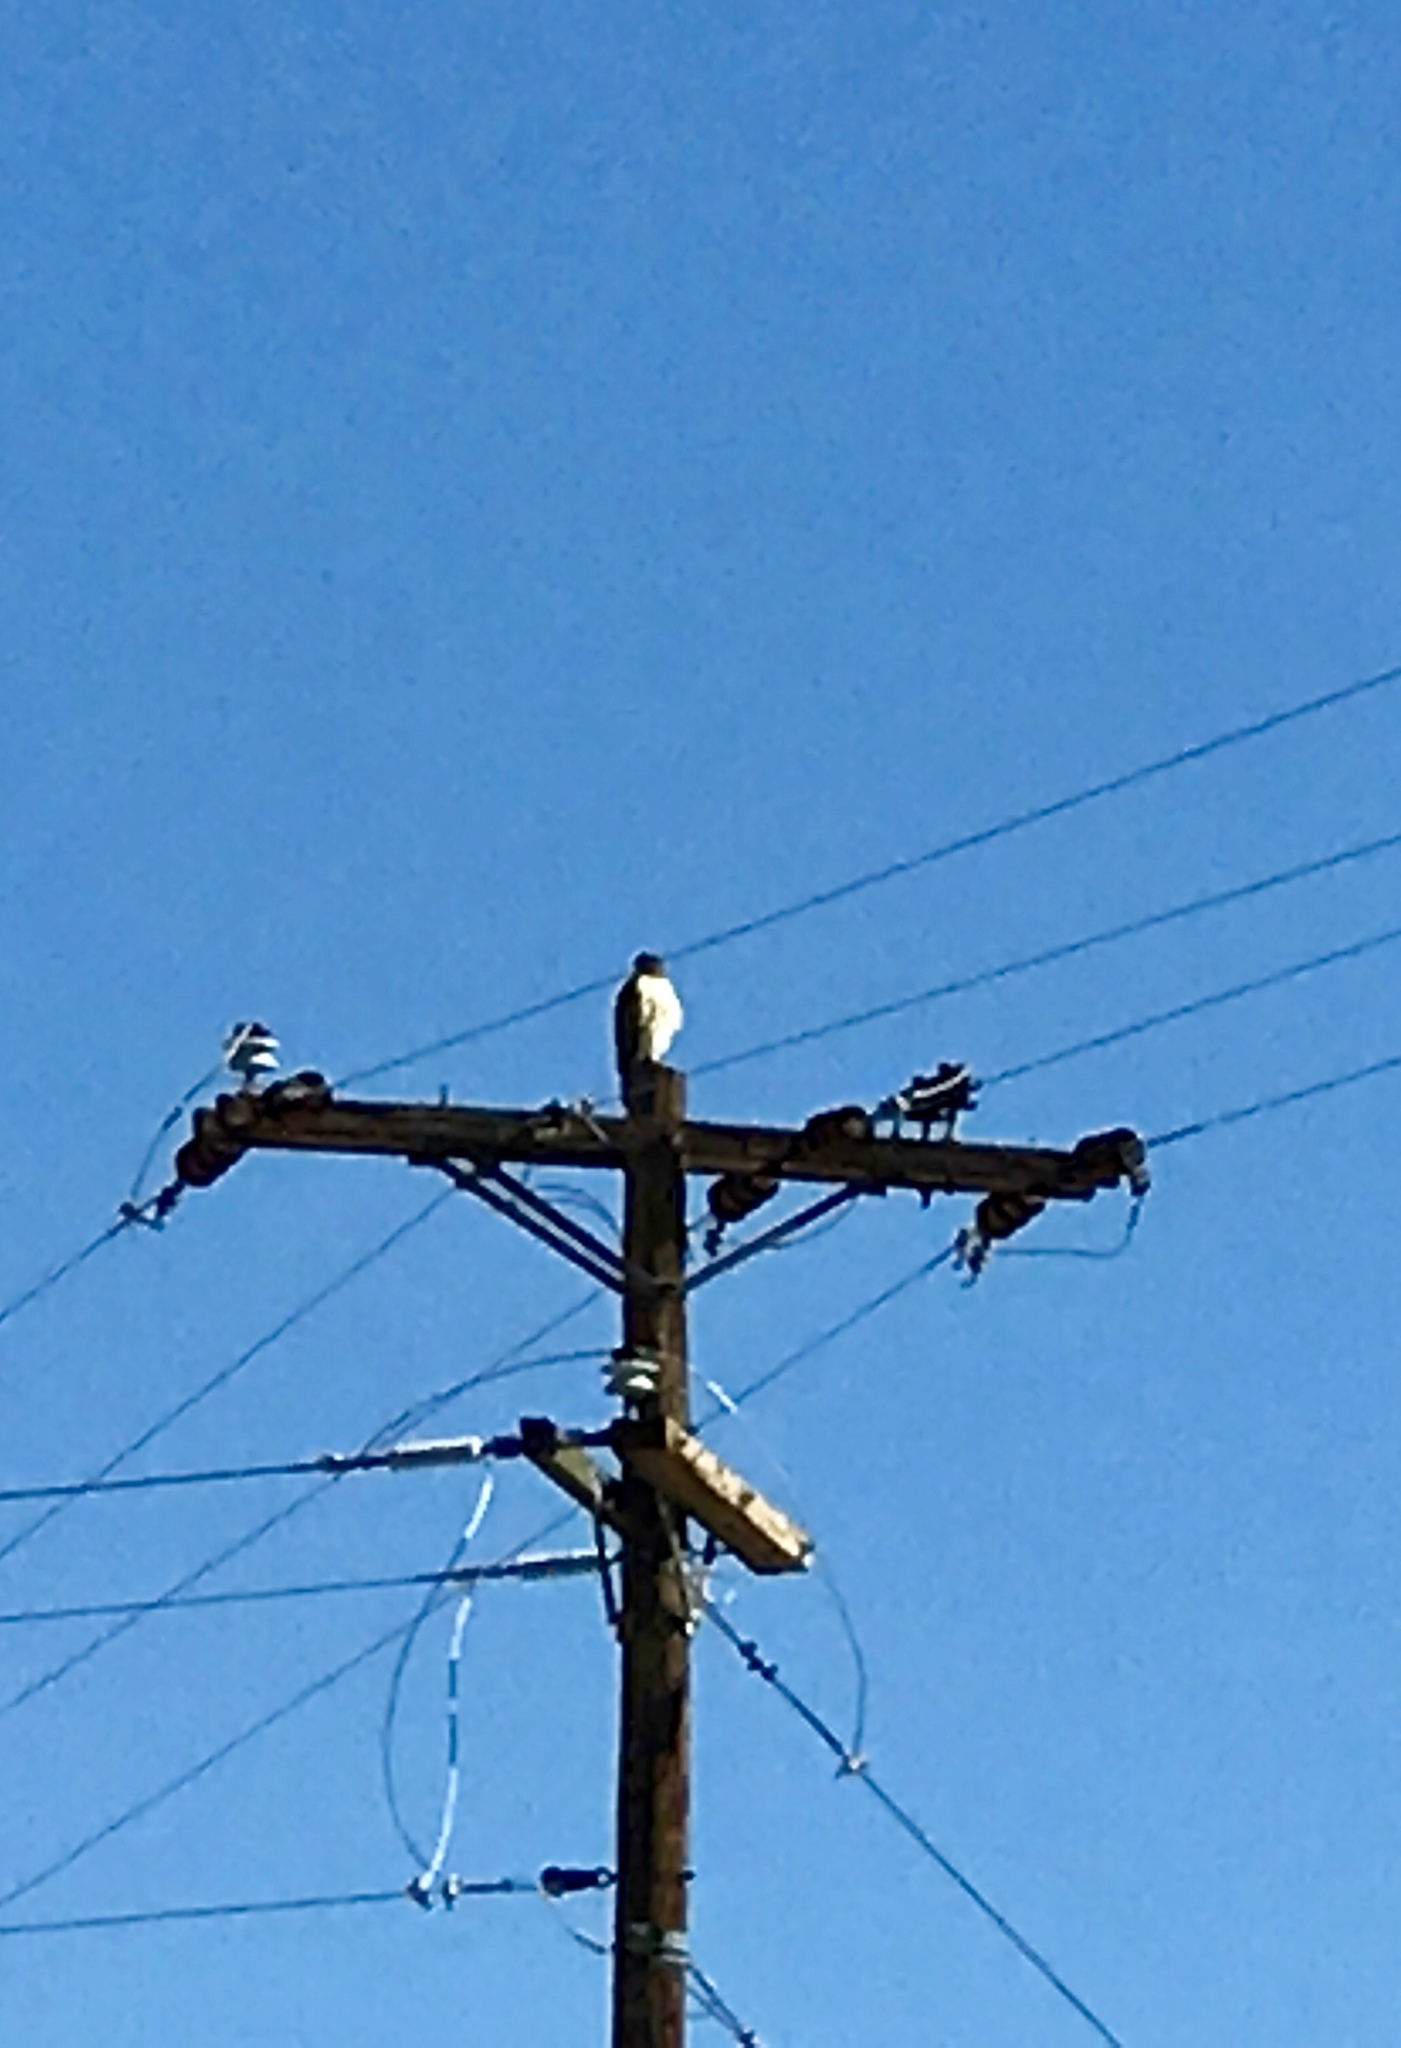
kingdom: Animalia
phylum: Chordata
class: Aves
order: Accipitriformes
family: Accipitridae
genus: Buteo
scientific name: Buteo jamaicensis
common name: Red-tailed hawk
